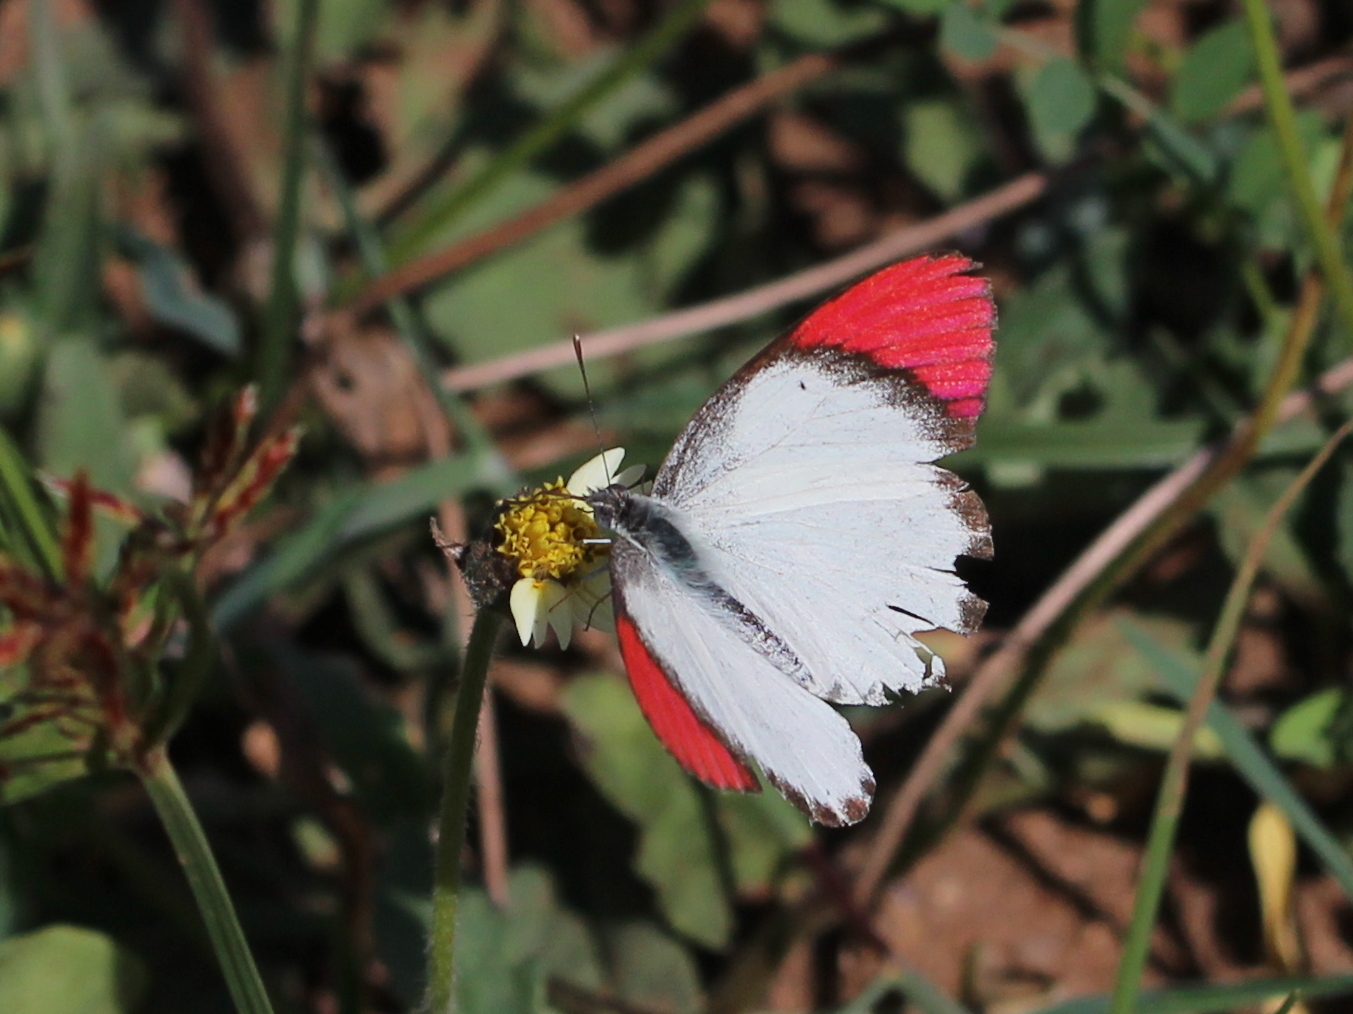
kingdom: Animalia
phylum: Arthropoda
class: Insecta
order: Lepidoptera
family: Pieridae
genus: Colotis
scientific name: Colotis danae
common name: Crimson tip
